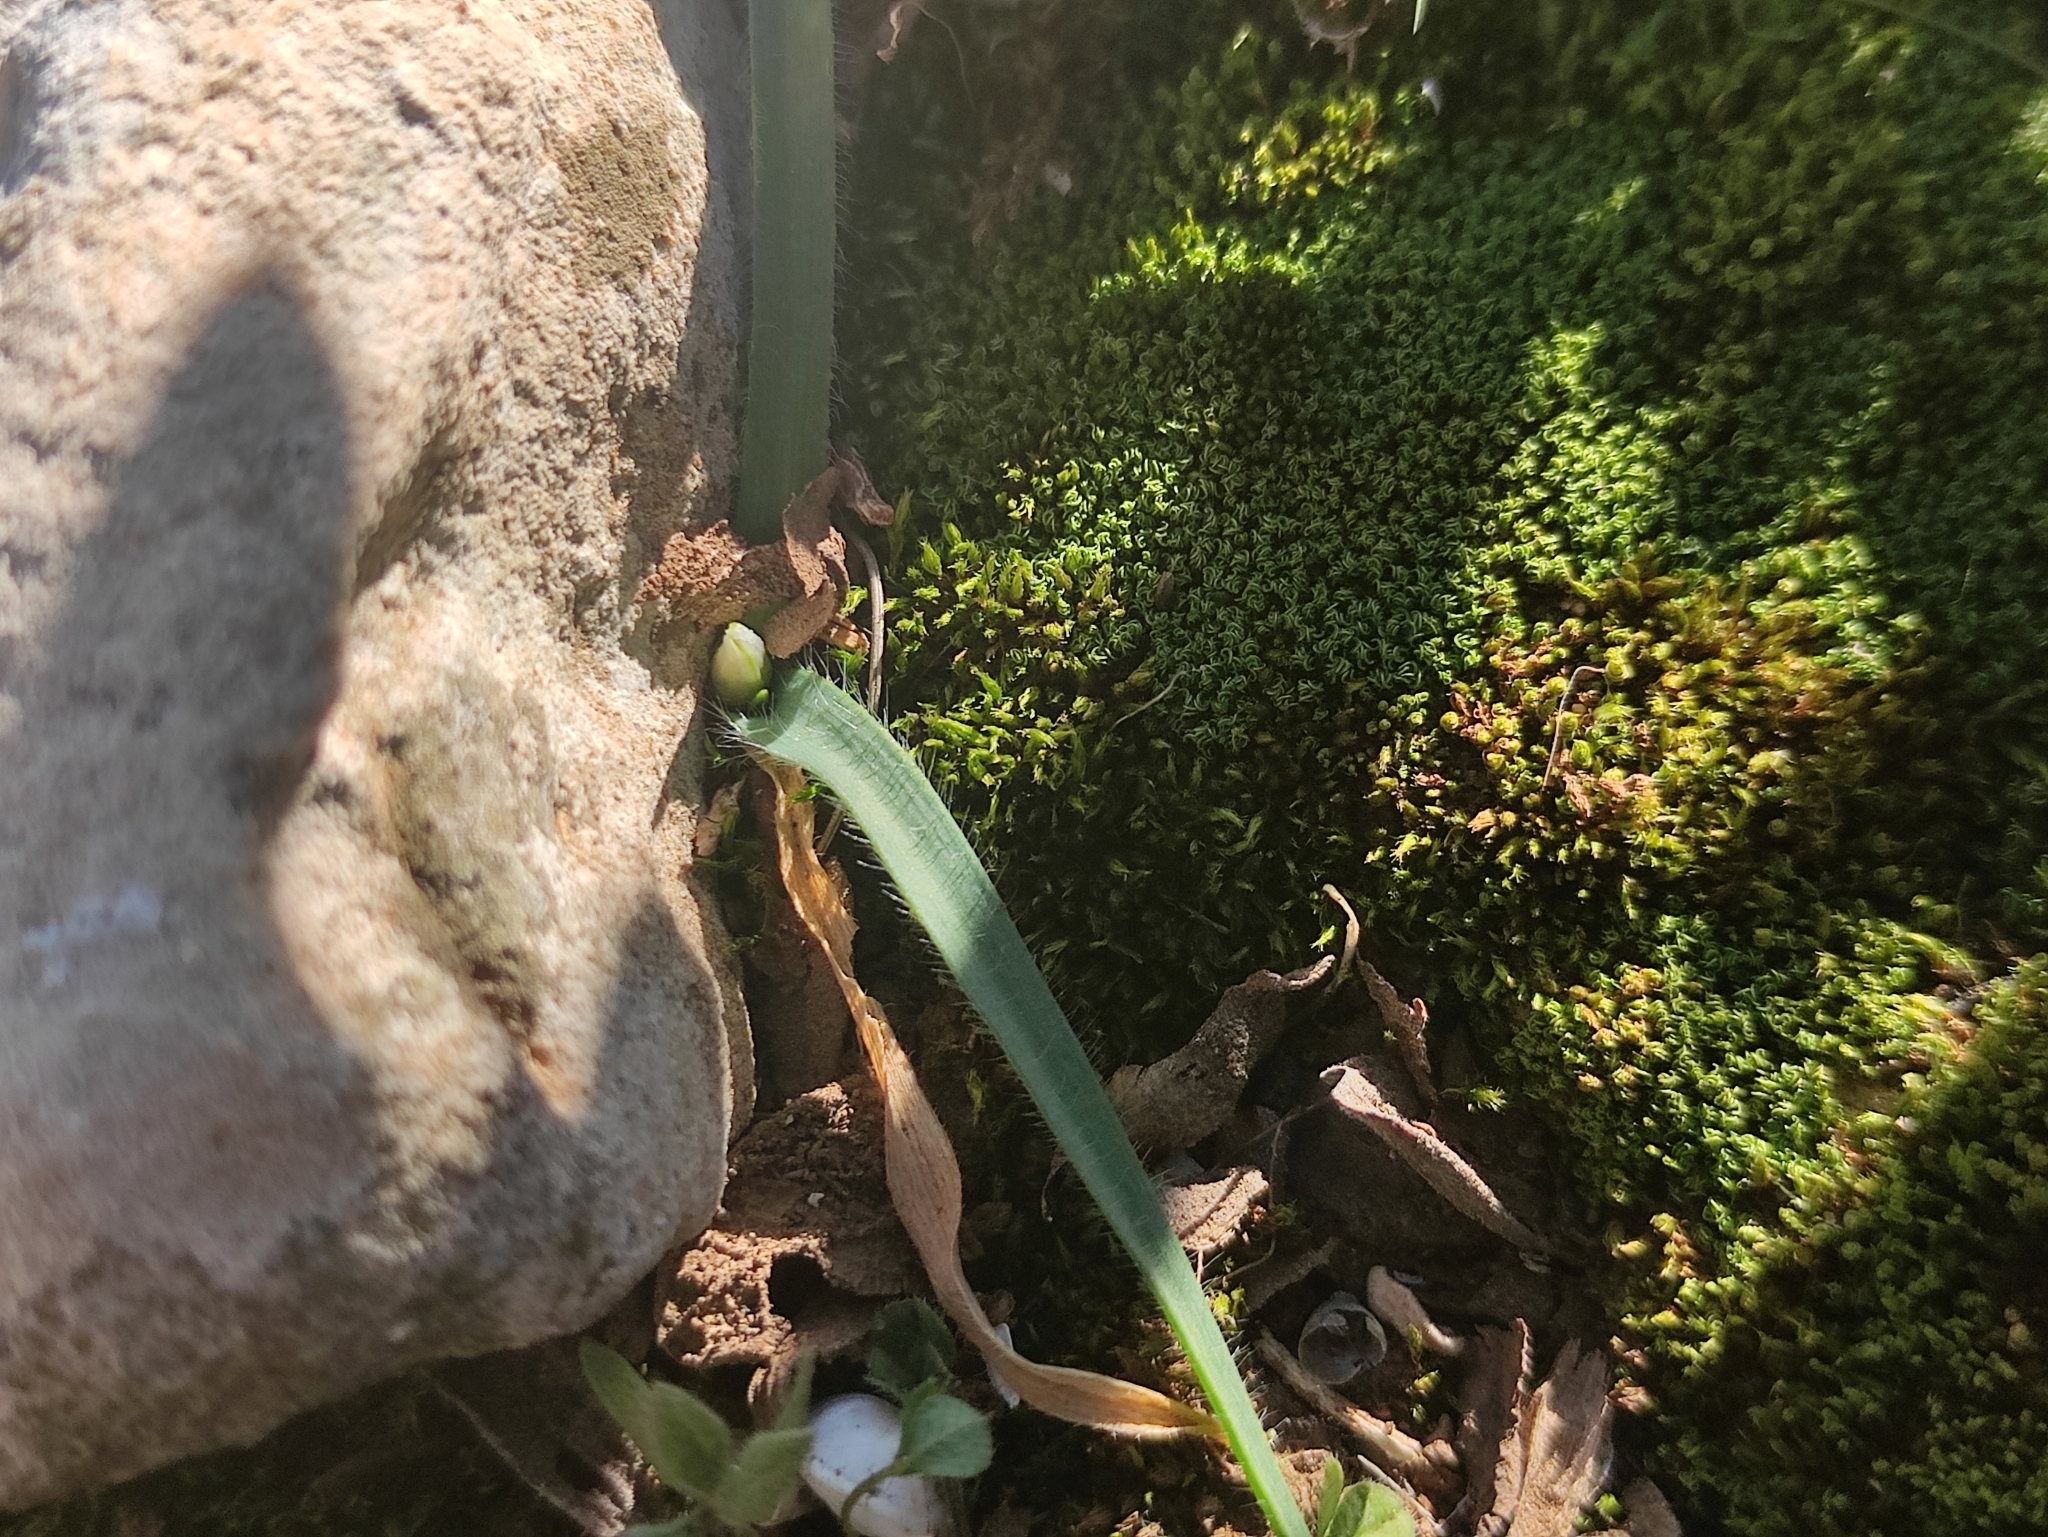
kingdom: Plantae
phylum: Tracheophyta
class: Liliopsida
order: Asparagales
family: Amaryllidaceae
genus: Allium
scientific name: Allium chamaemoly
